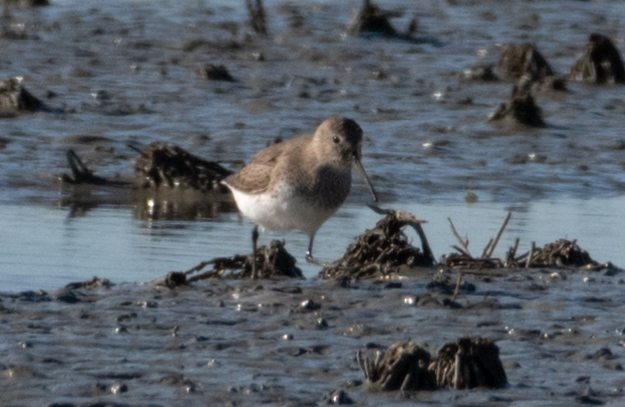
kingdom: Animalia
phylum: Chordata
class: Aves
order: Charadriiformes
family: Scolopacidae
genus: Calidris
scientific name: Calidris alpina
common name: Dunlin
